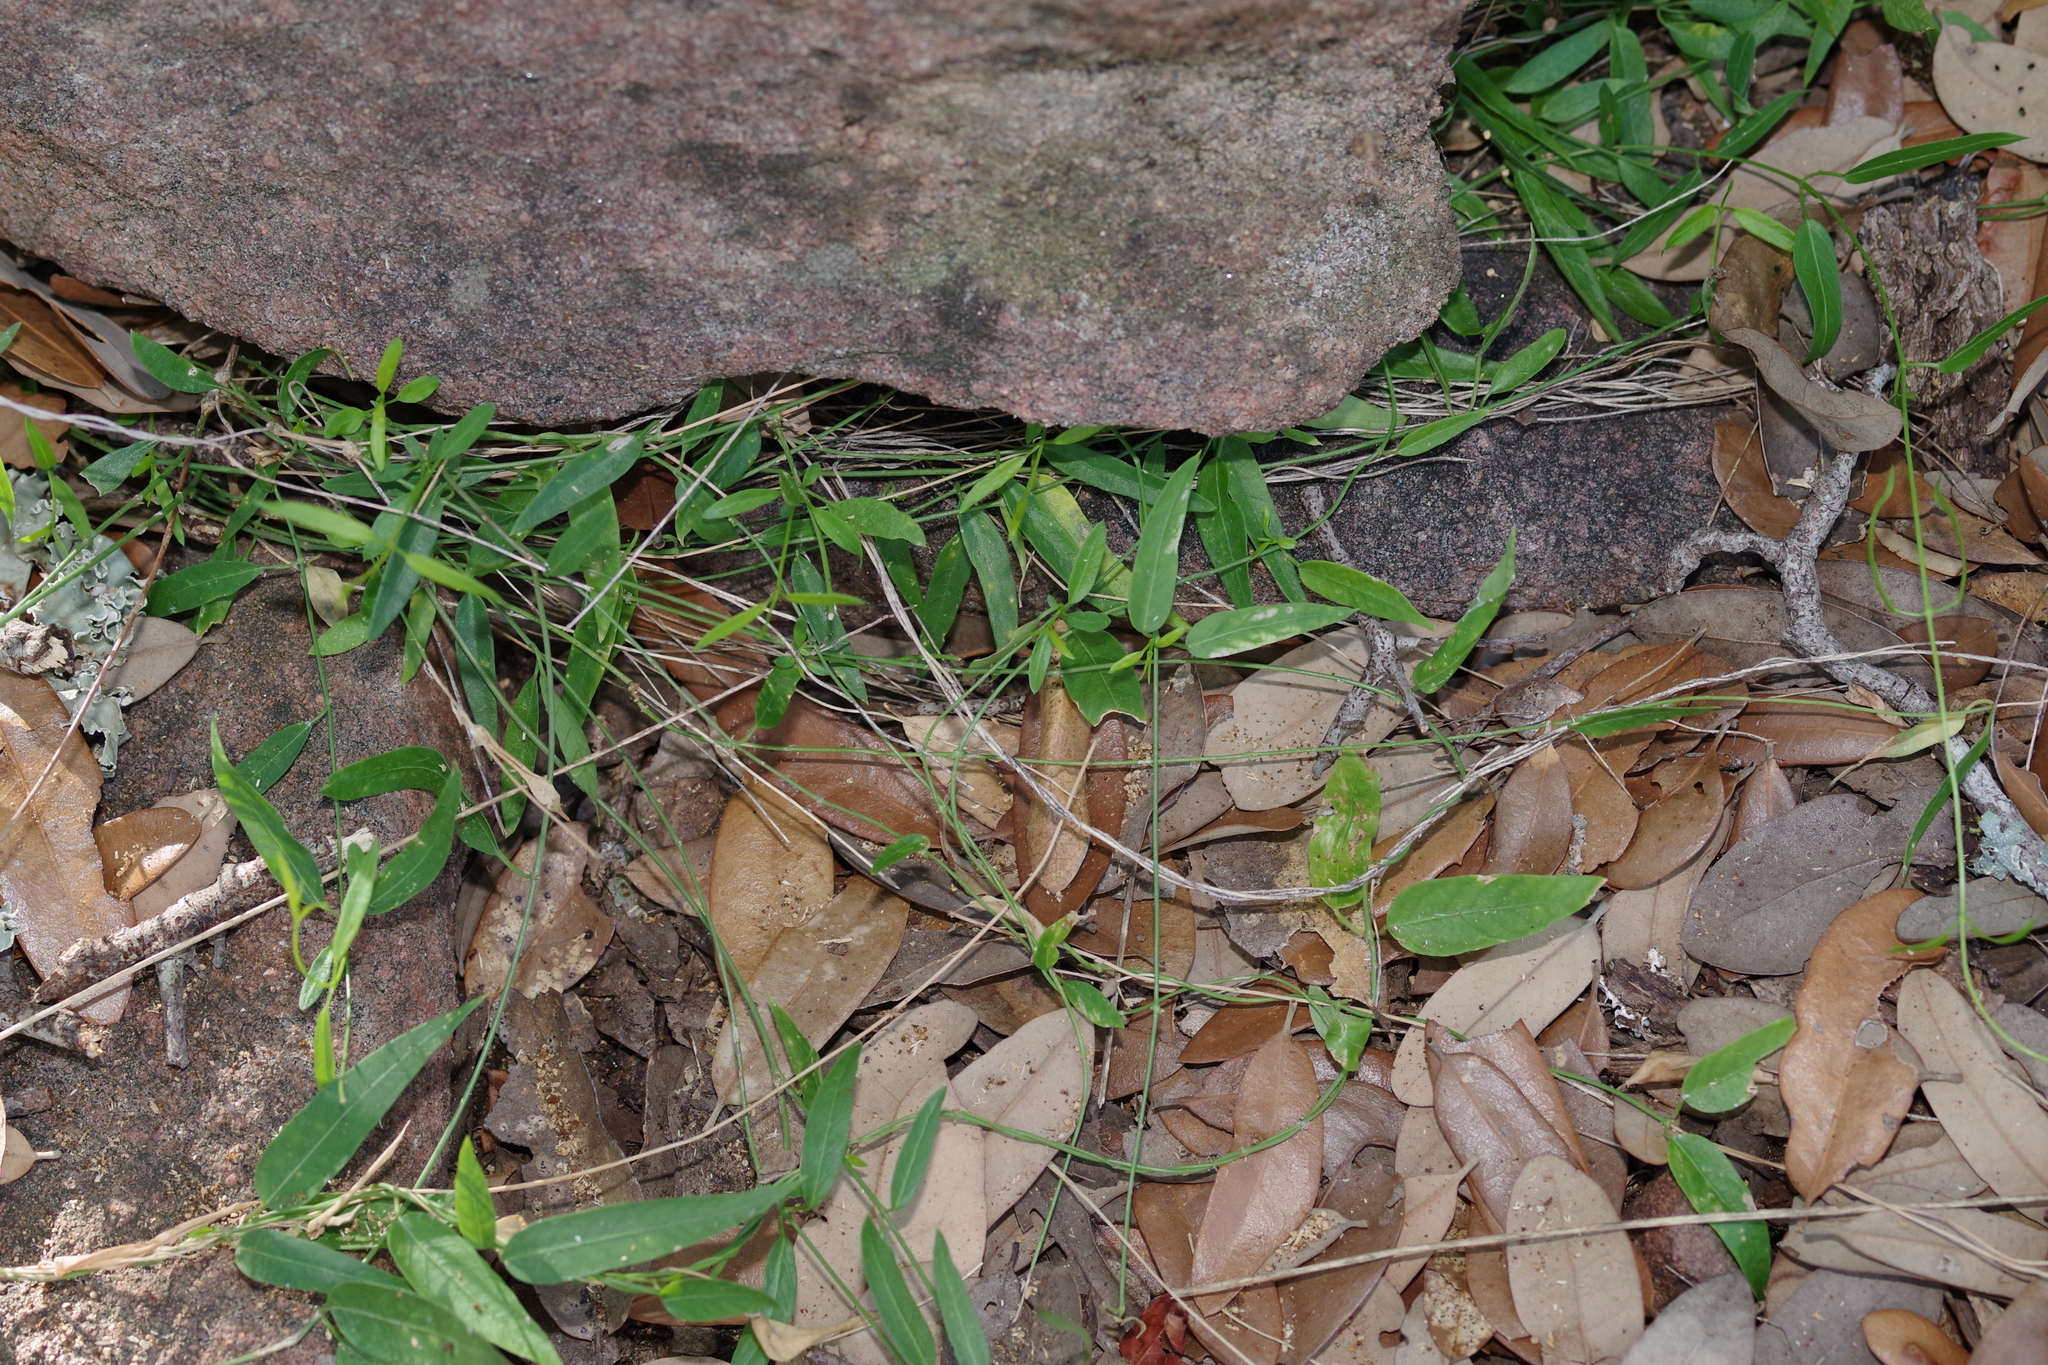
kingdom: Plantae
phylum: Tracheophyta
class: Magnoliopsida
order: Gentianales
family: Apocynaceae
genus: Metastelma
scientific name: Metastelma barbigerum
